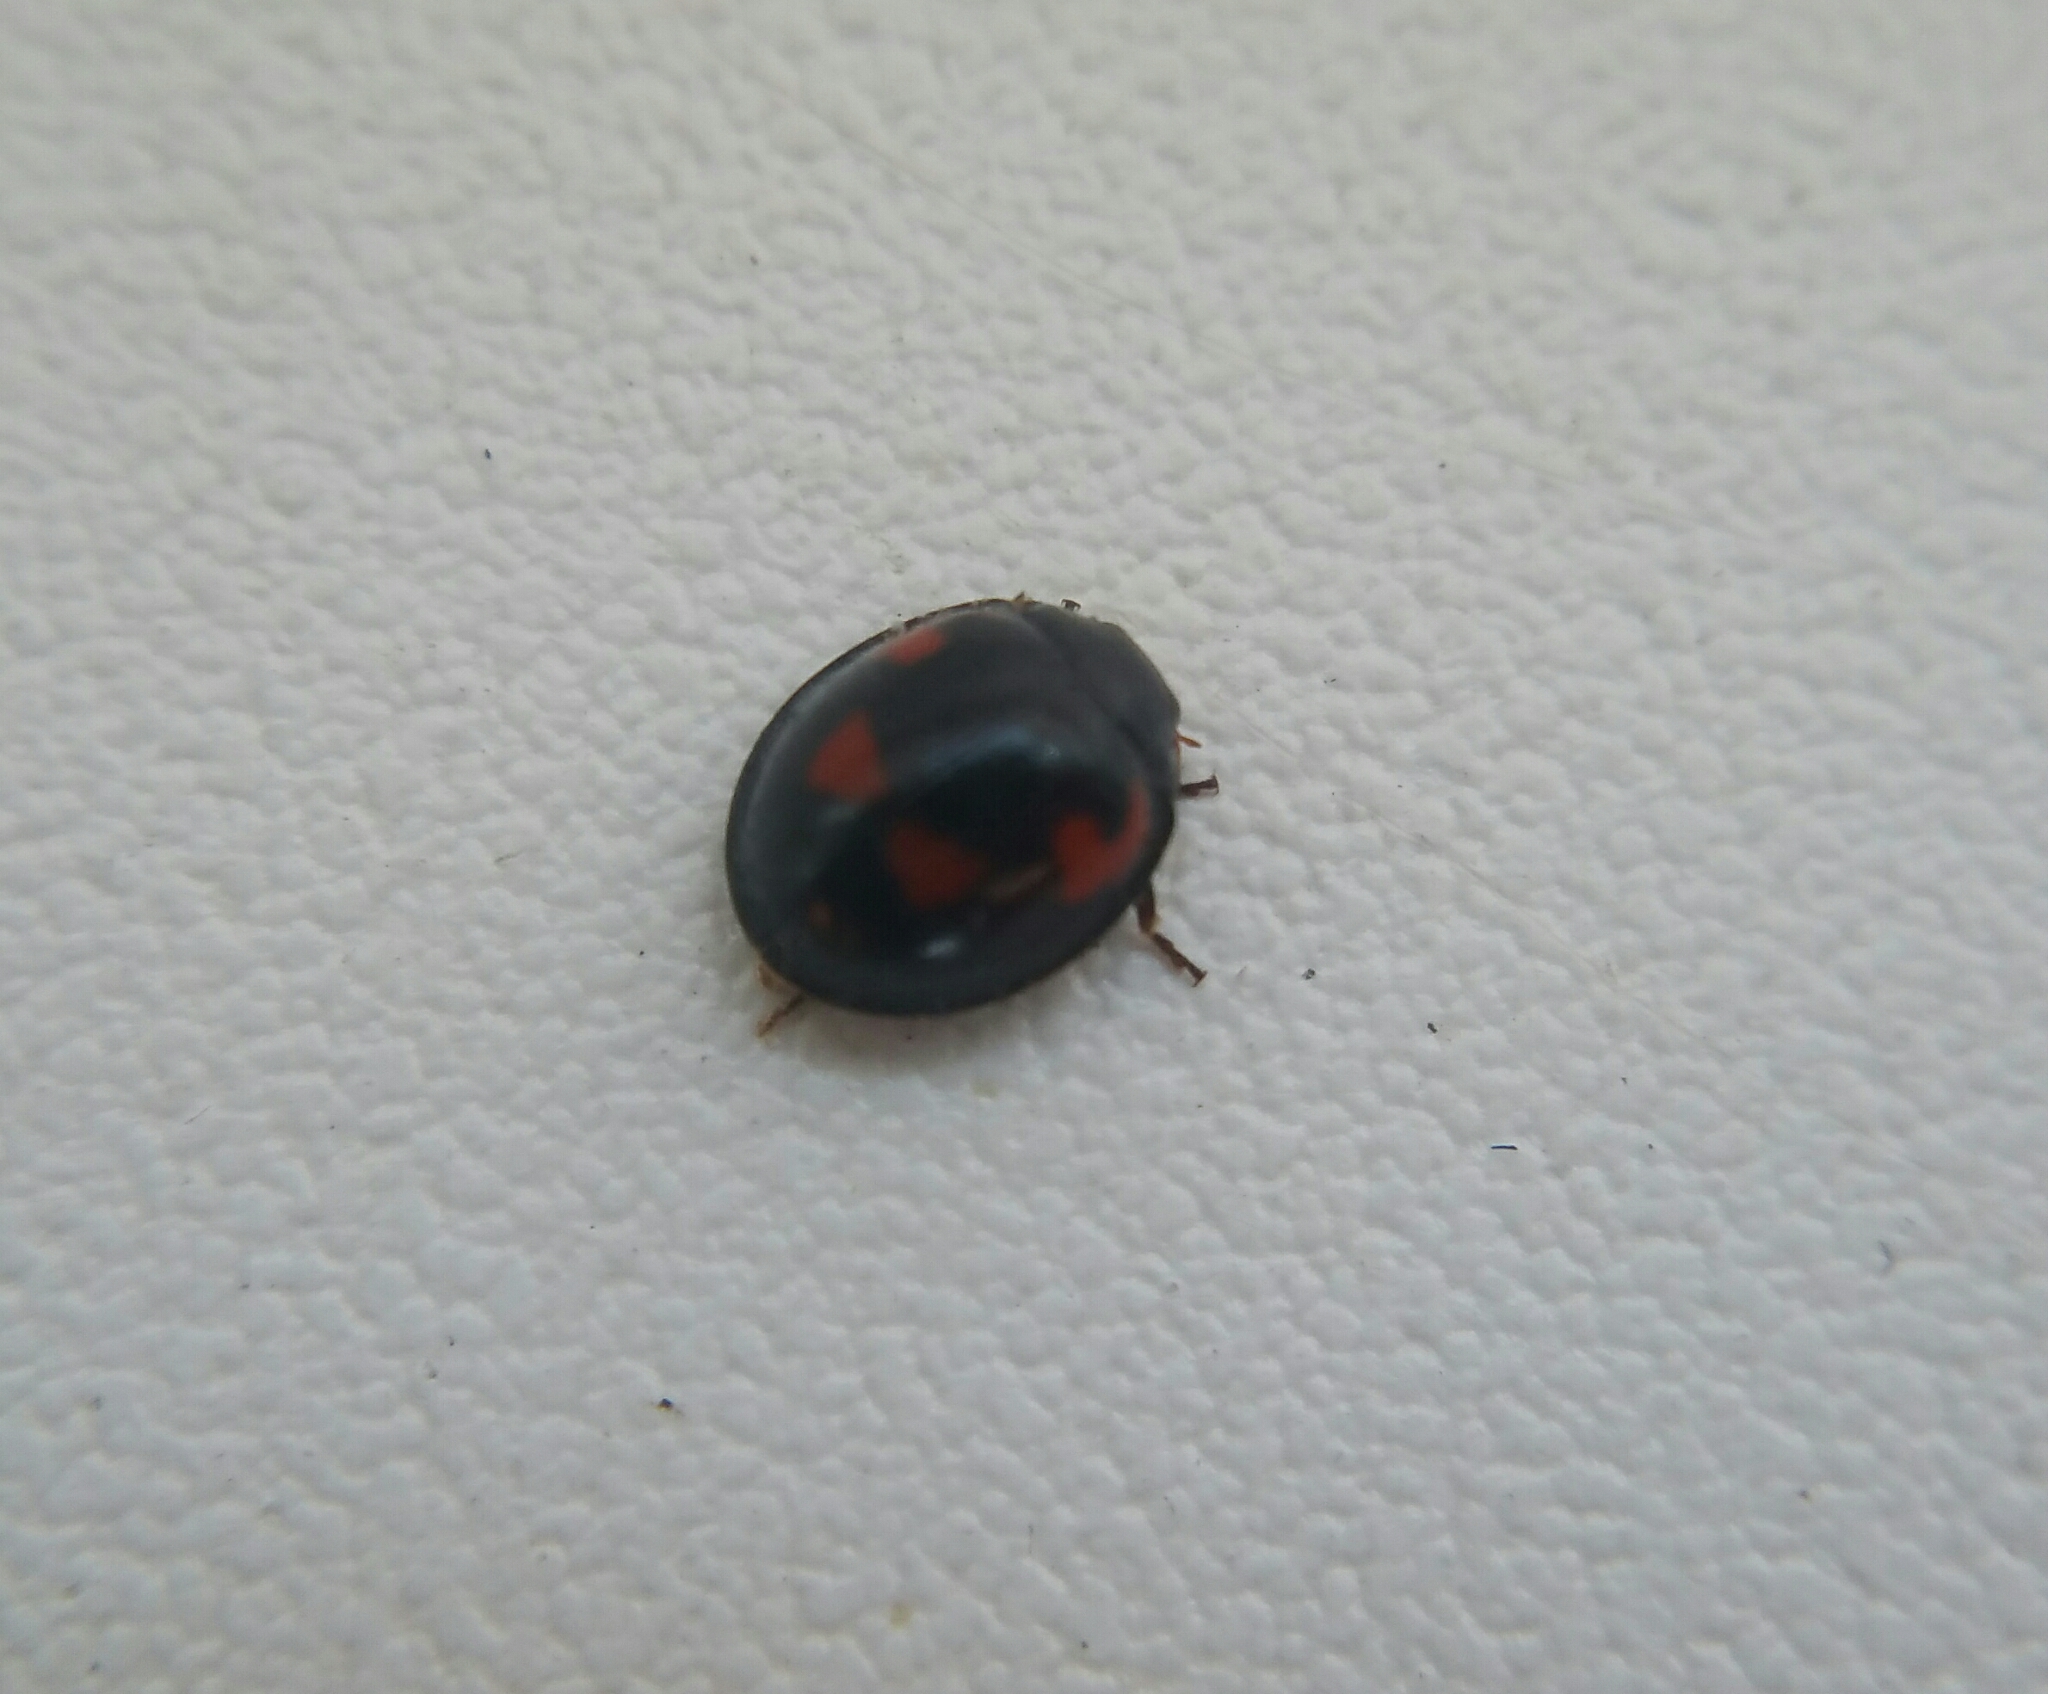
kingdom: Animalia
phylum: Arthropoda
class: Insecta
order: Coleoptera
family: Coccinellidae
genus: Brumus
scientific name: Brumus quadripustulatus
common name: Ladybird beetle
